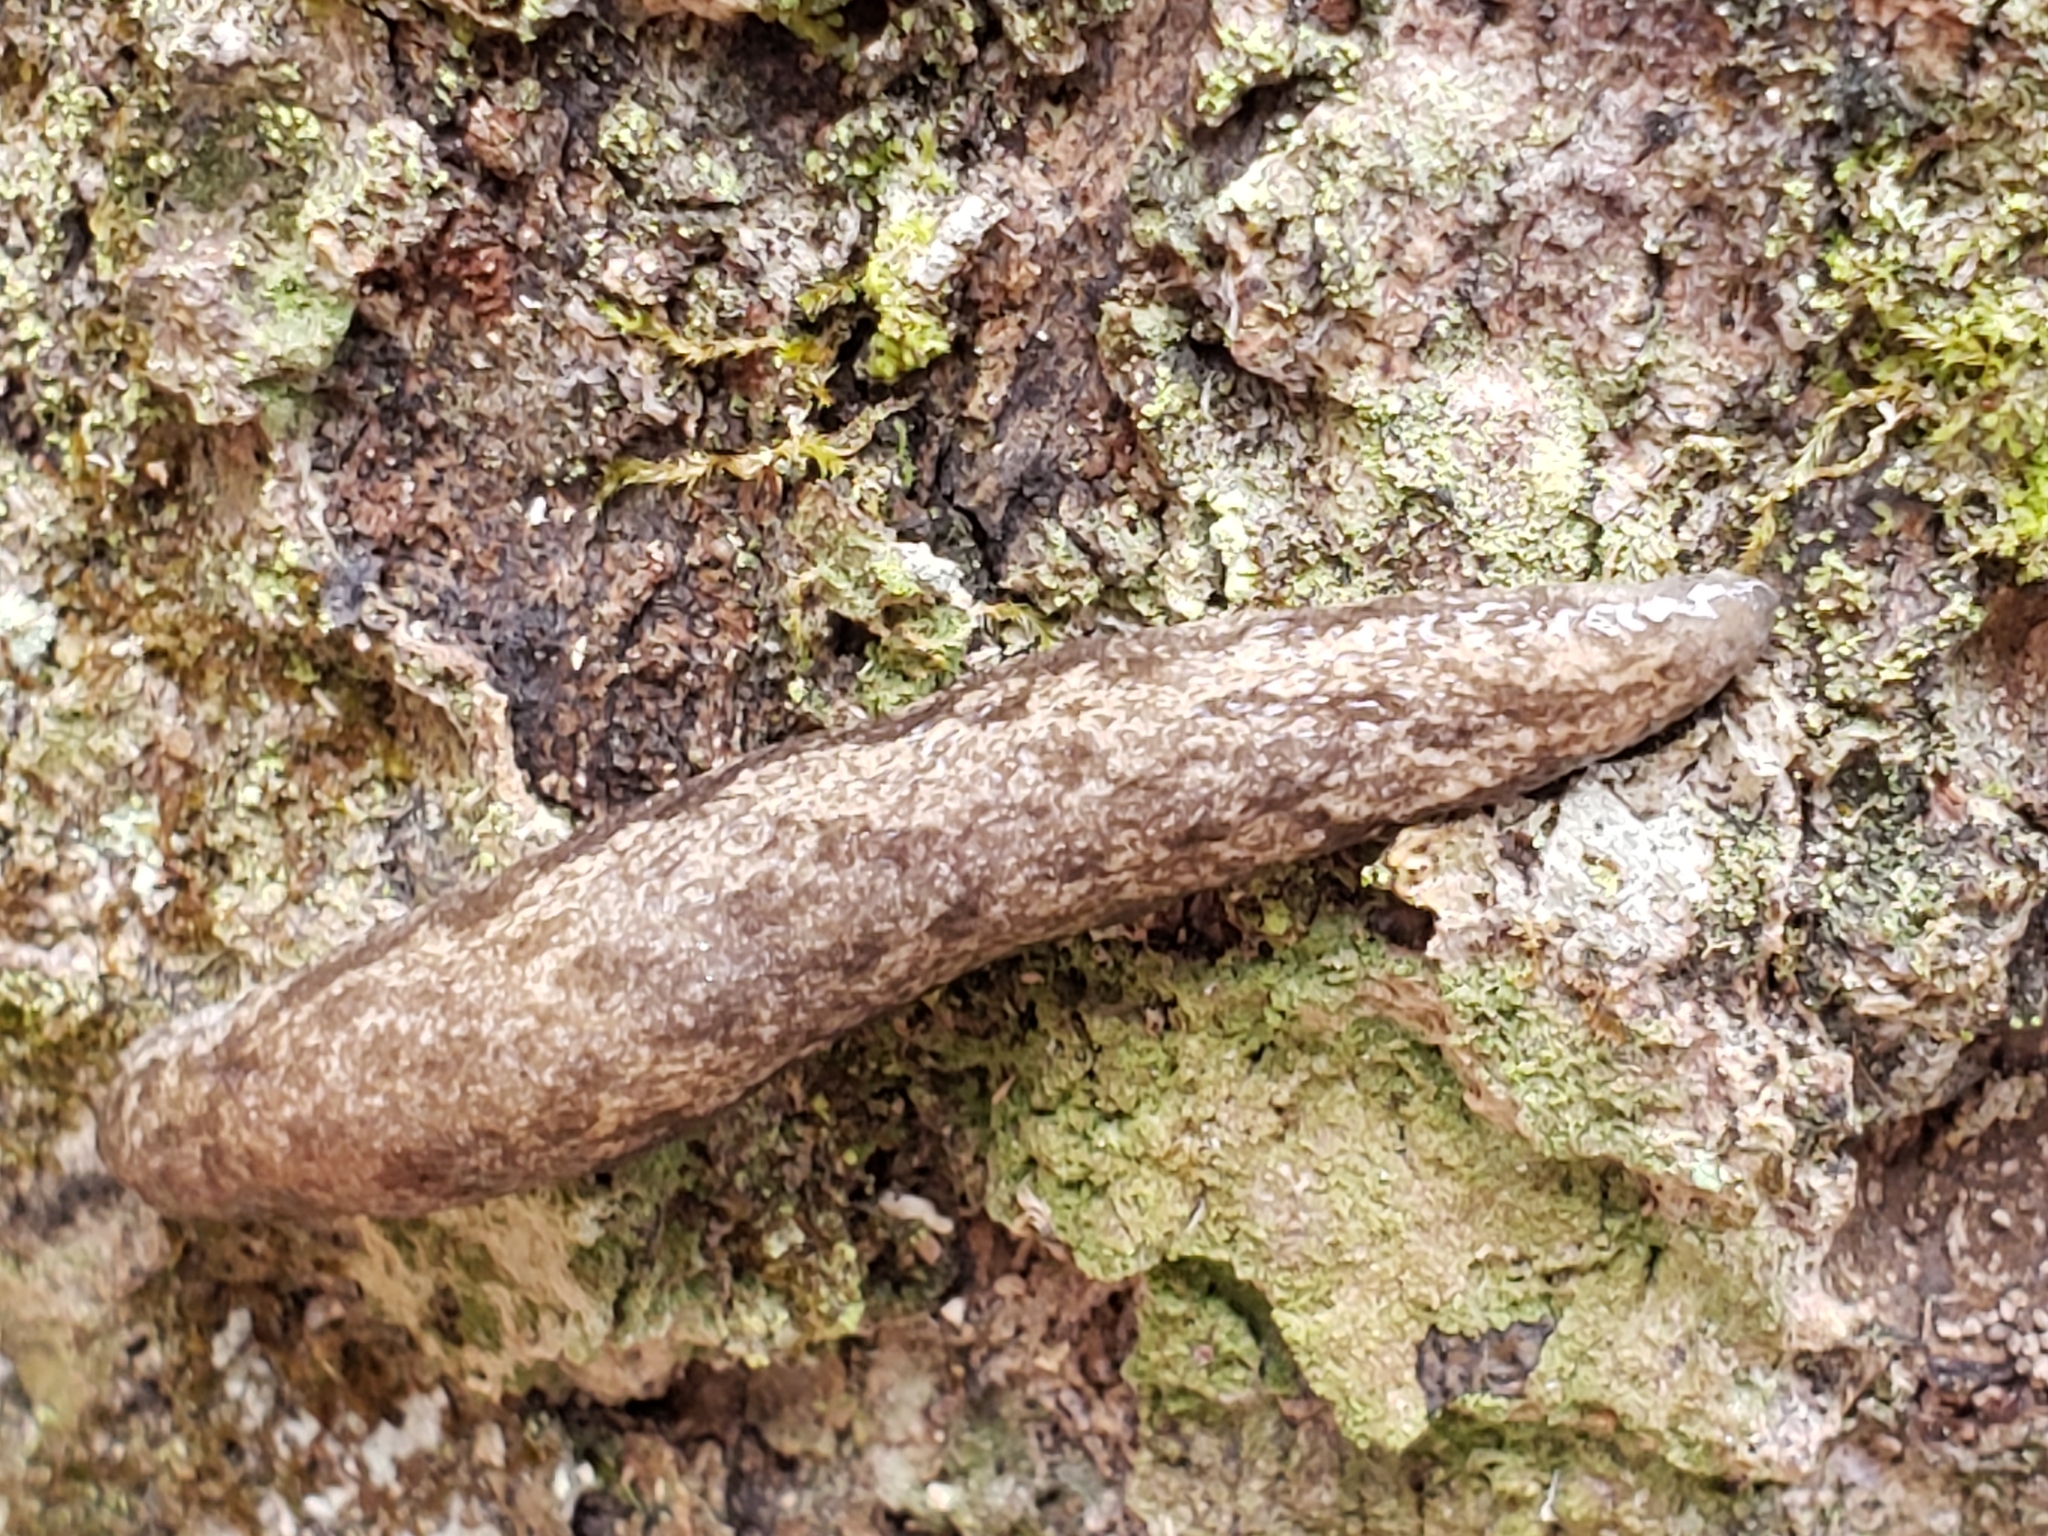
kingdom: Animalia
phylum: Mollusca
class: Gastropoda
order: Stylommatophora
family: Philomycidae
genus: Megapallifera
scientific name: Megapallifera mutabilis
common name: Changeable mantleslug
